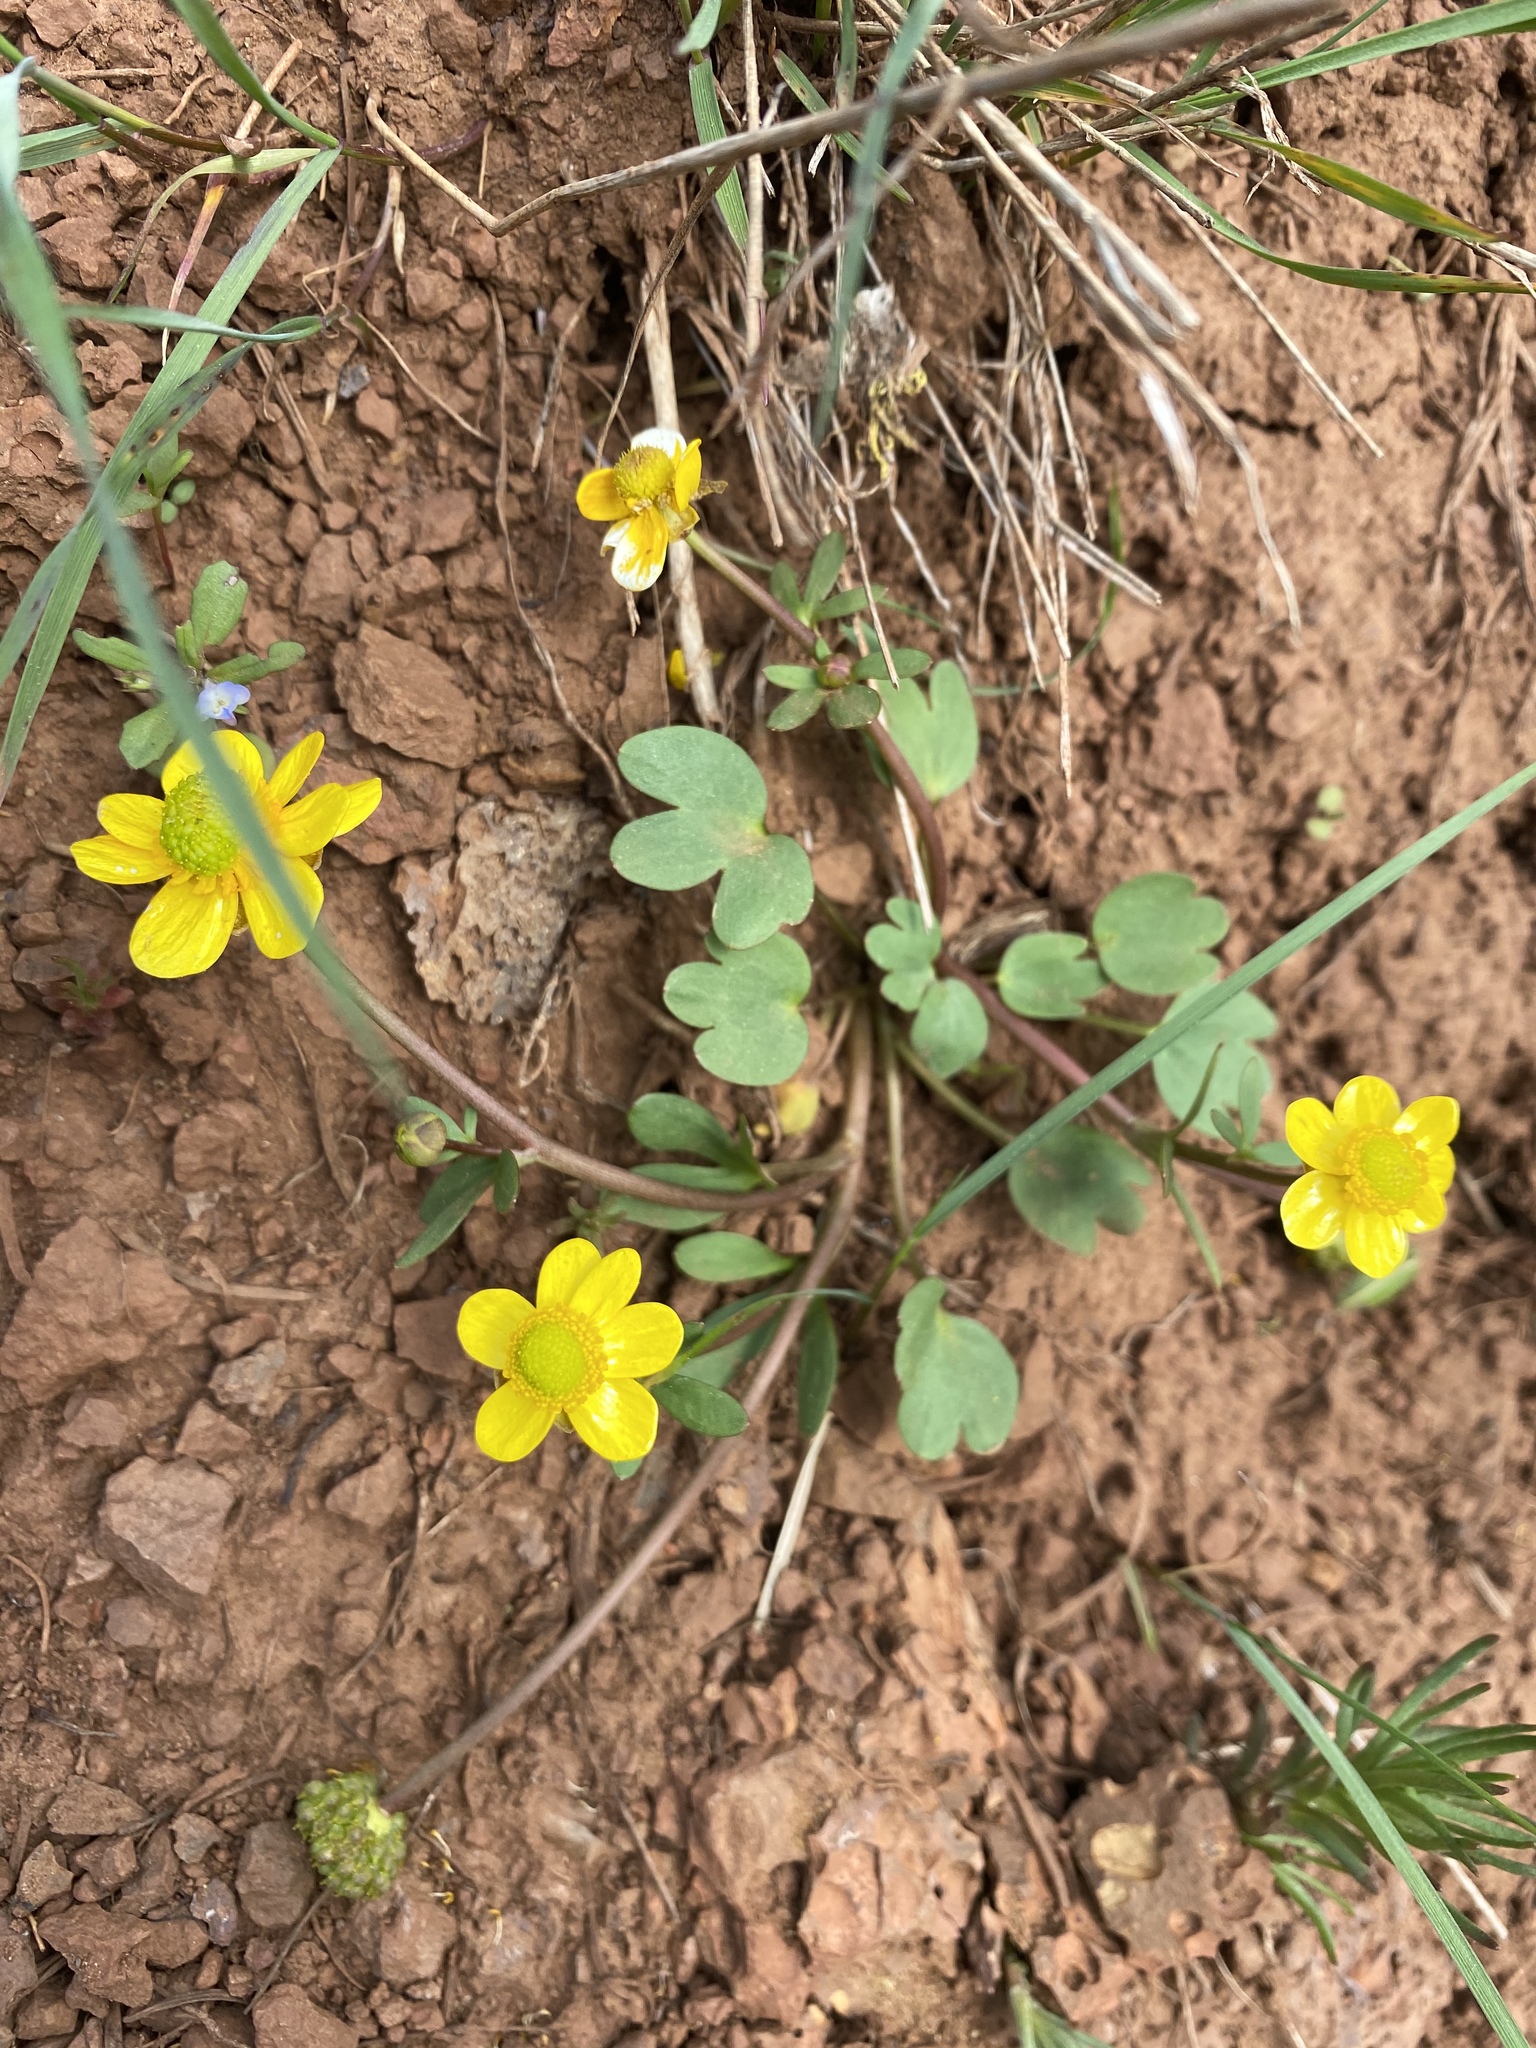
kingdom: Plantae
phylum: Tracheophyta
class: Magnoliopsida
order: Ranunculales
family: Ranunculaceae
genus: Ranunculus
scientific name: Ranunculus glaberrimus
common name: Sagebrush buttercup
